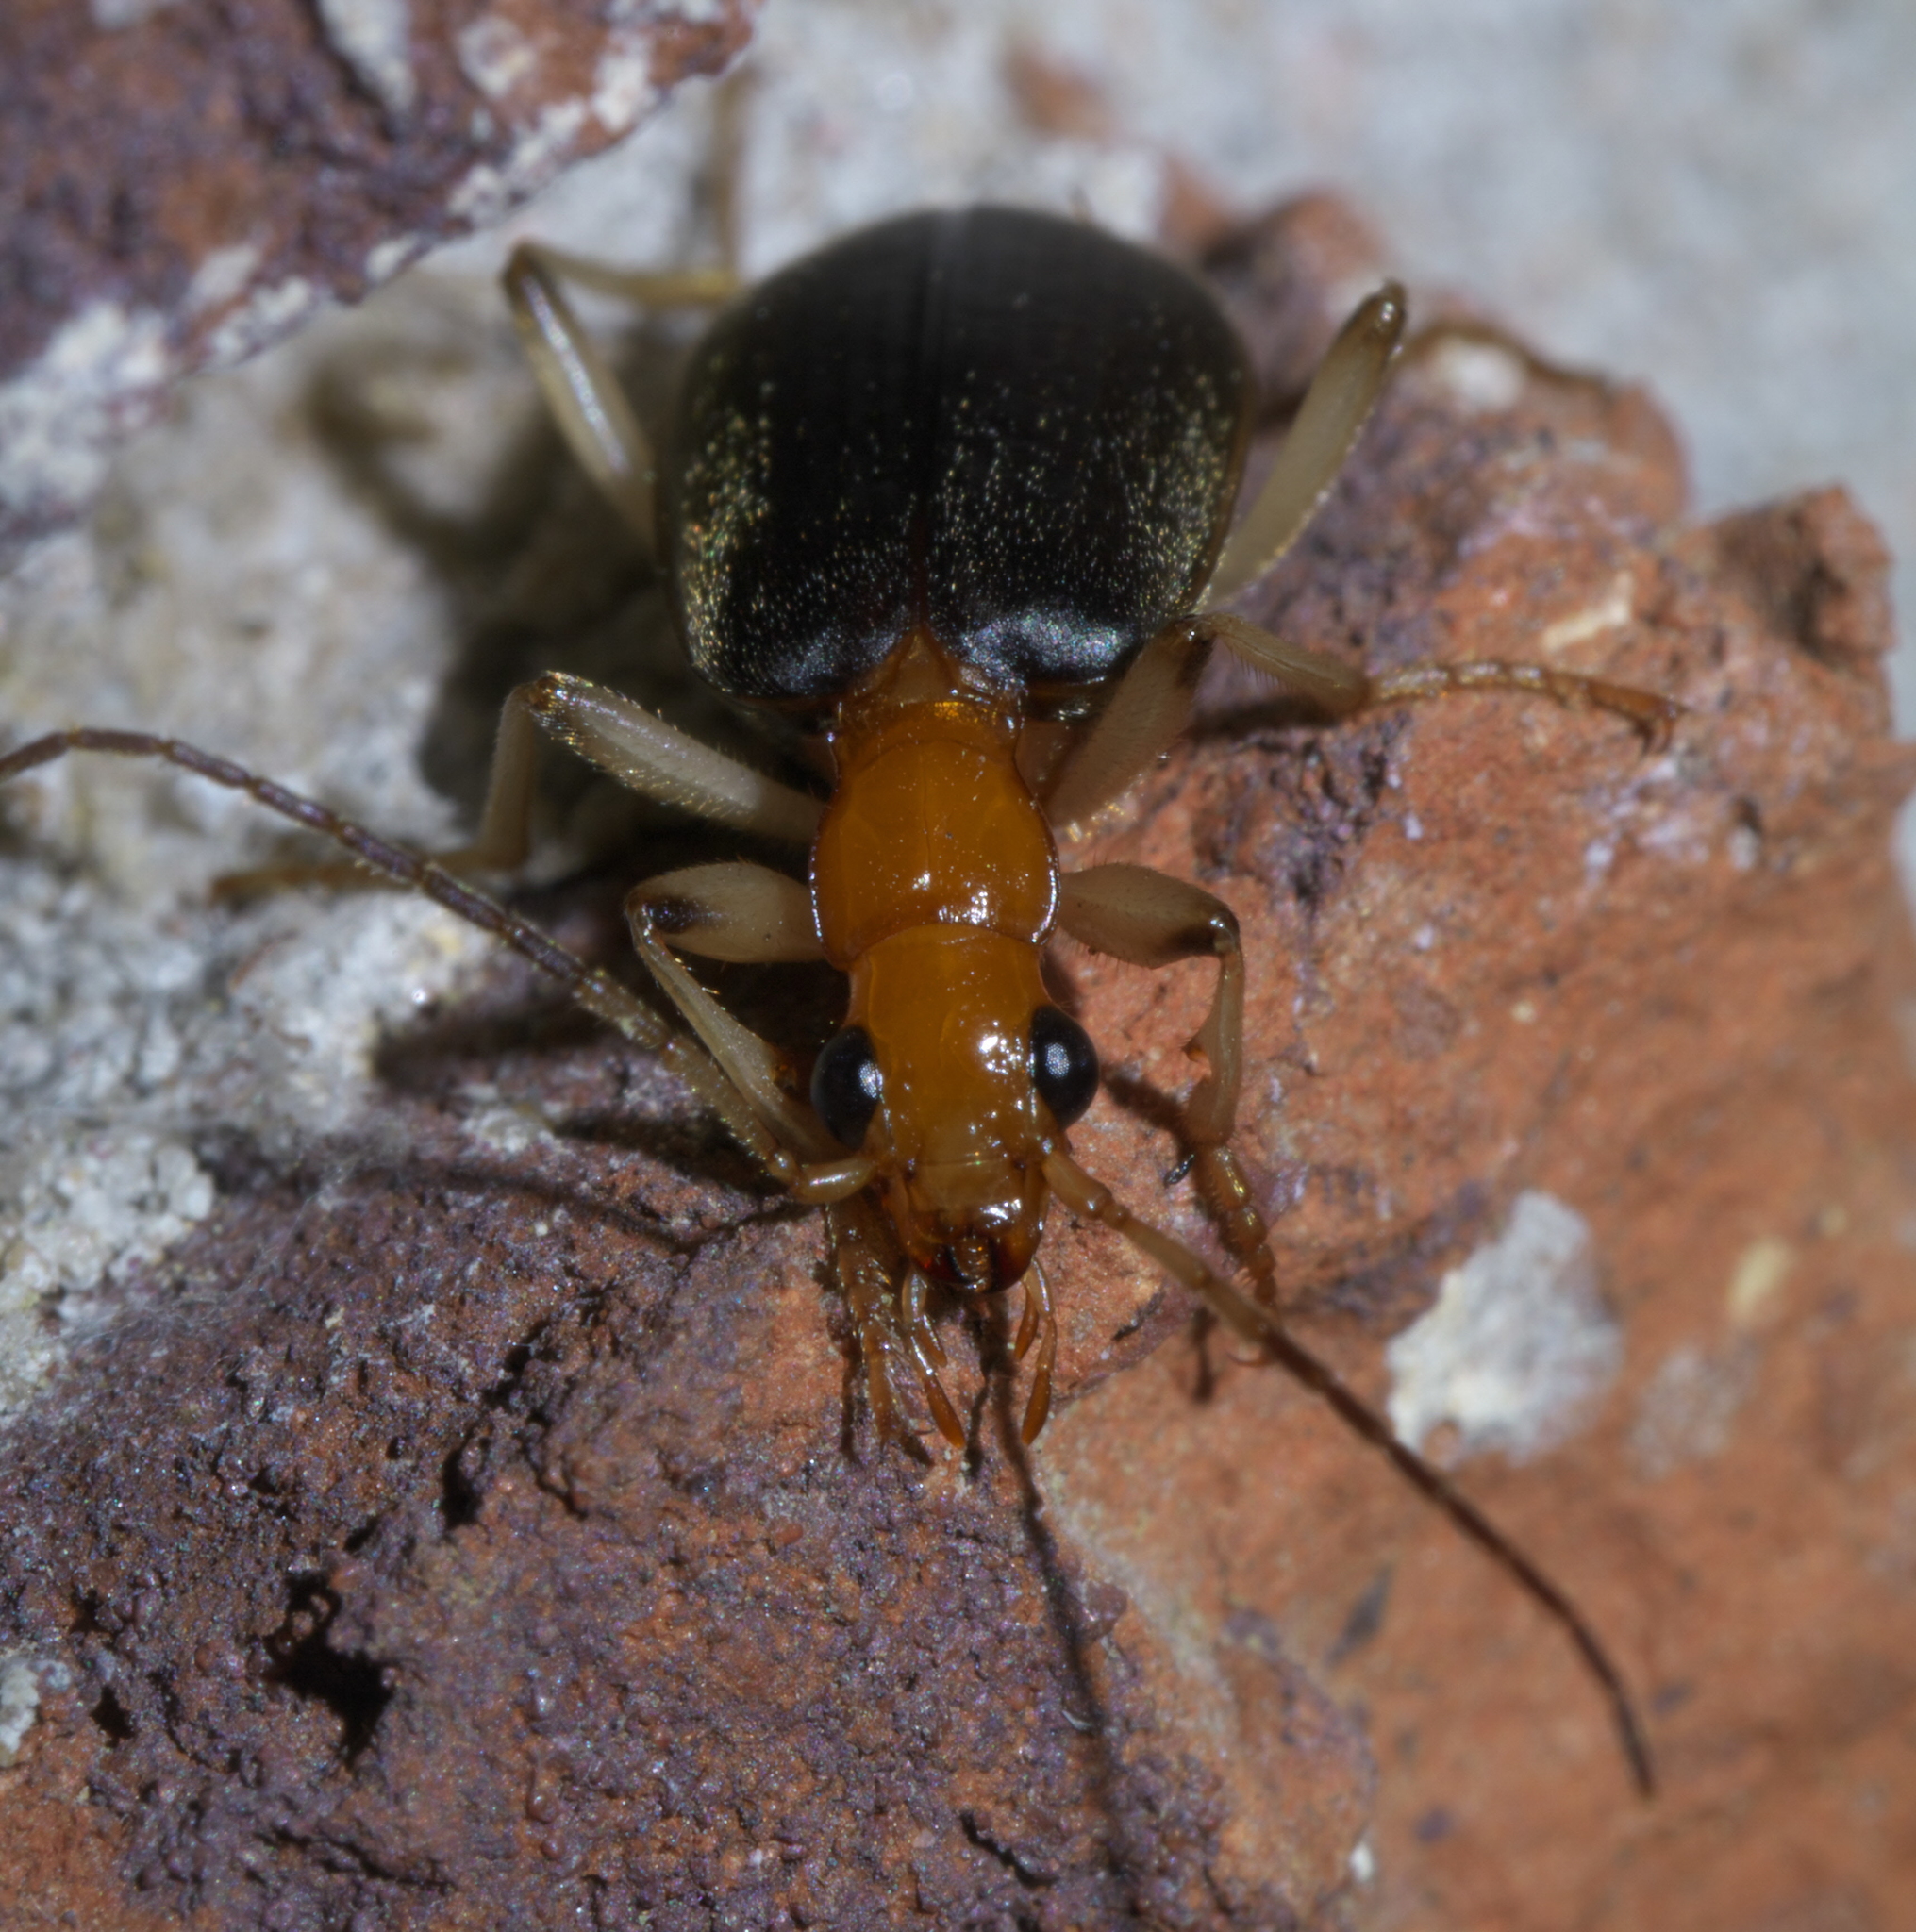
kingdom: Animalia
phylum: Arthropoda
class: Insecta
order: Coleoptera
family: Carabidae
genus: Brachinus
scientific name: Brachinus adustipennis
